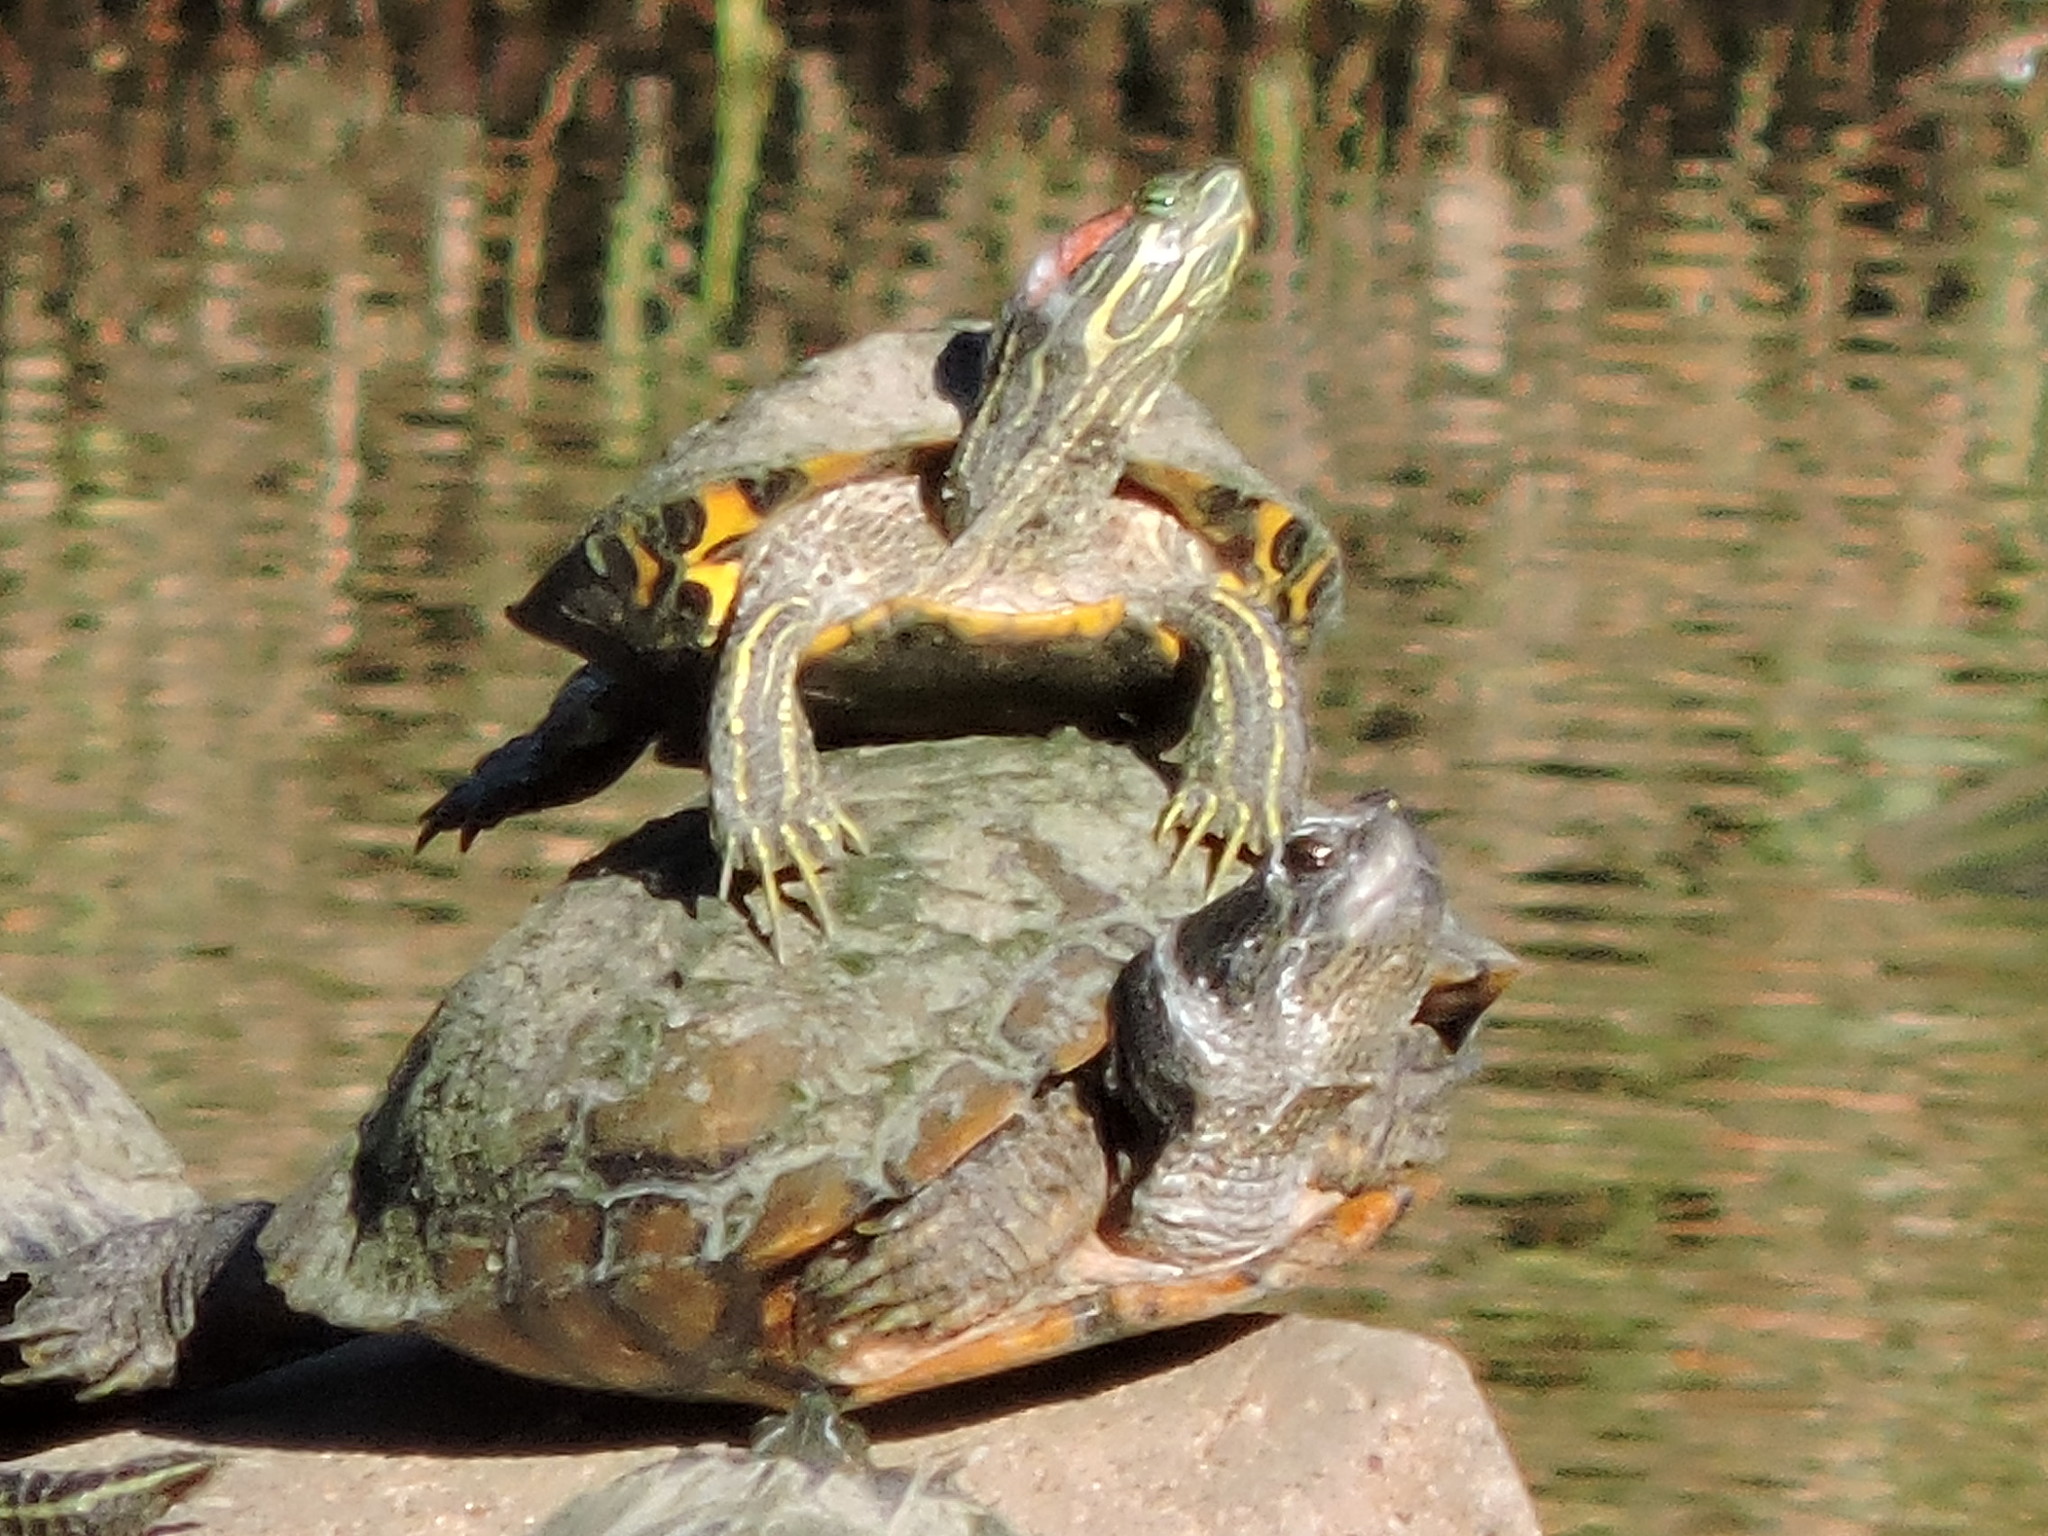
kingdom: Animalia
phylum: Chordata
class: Testudines
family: Emydidae
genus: Trachemys
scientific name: Trachemys scripta
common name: Slider
